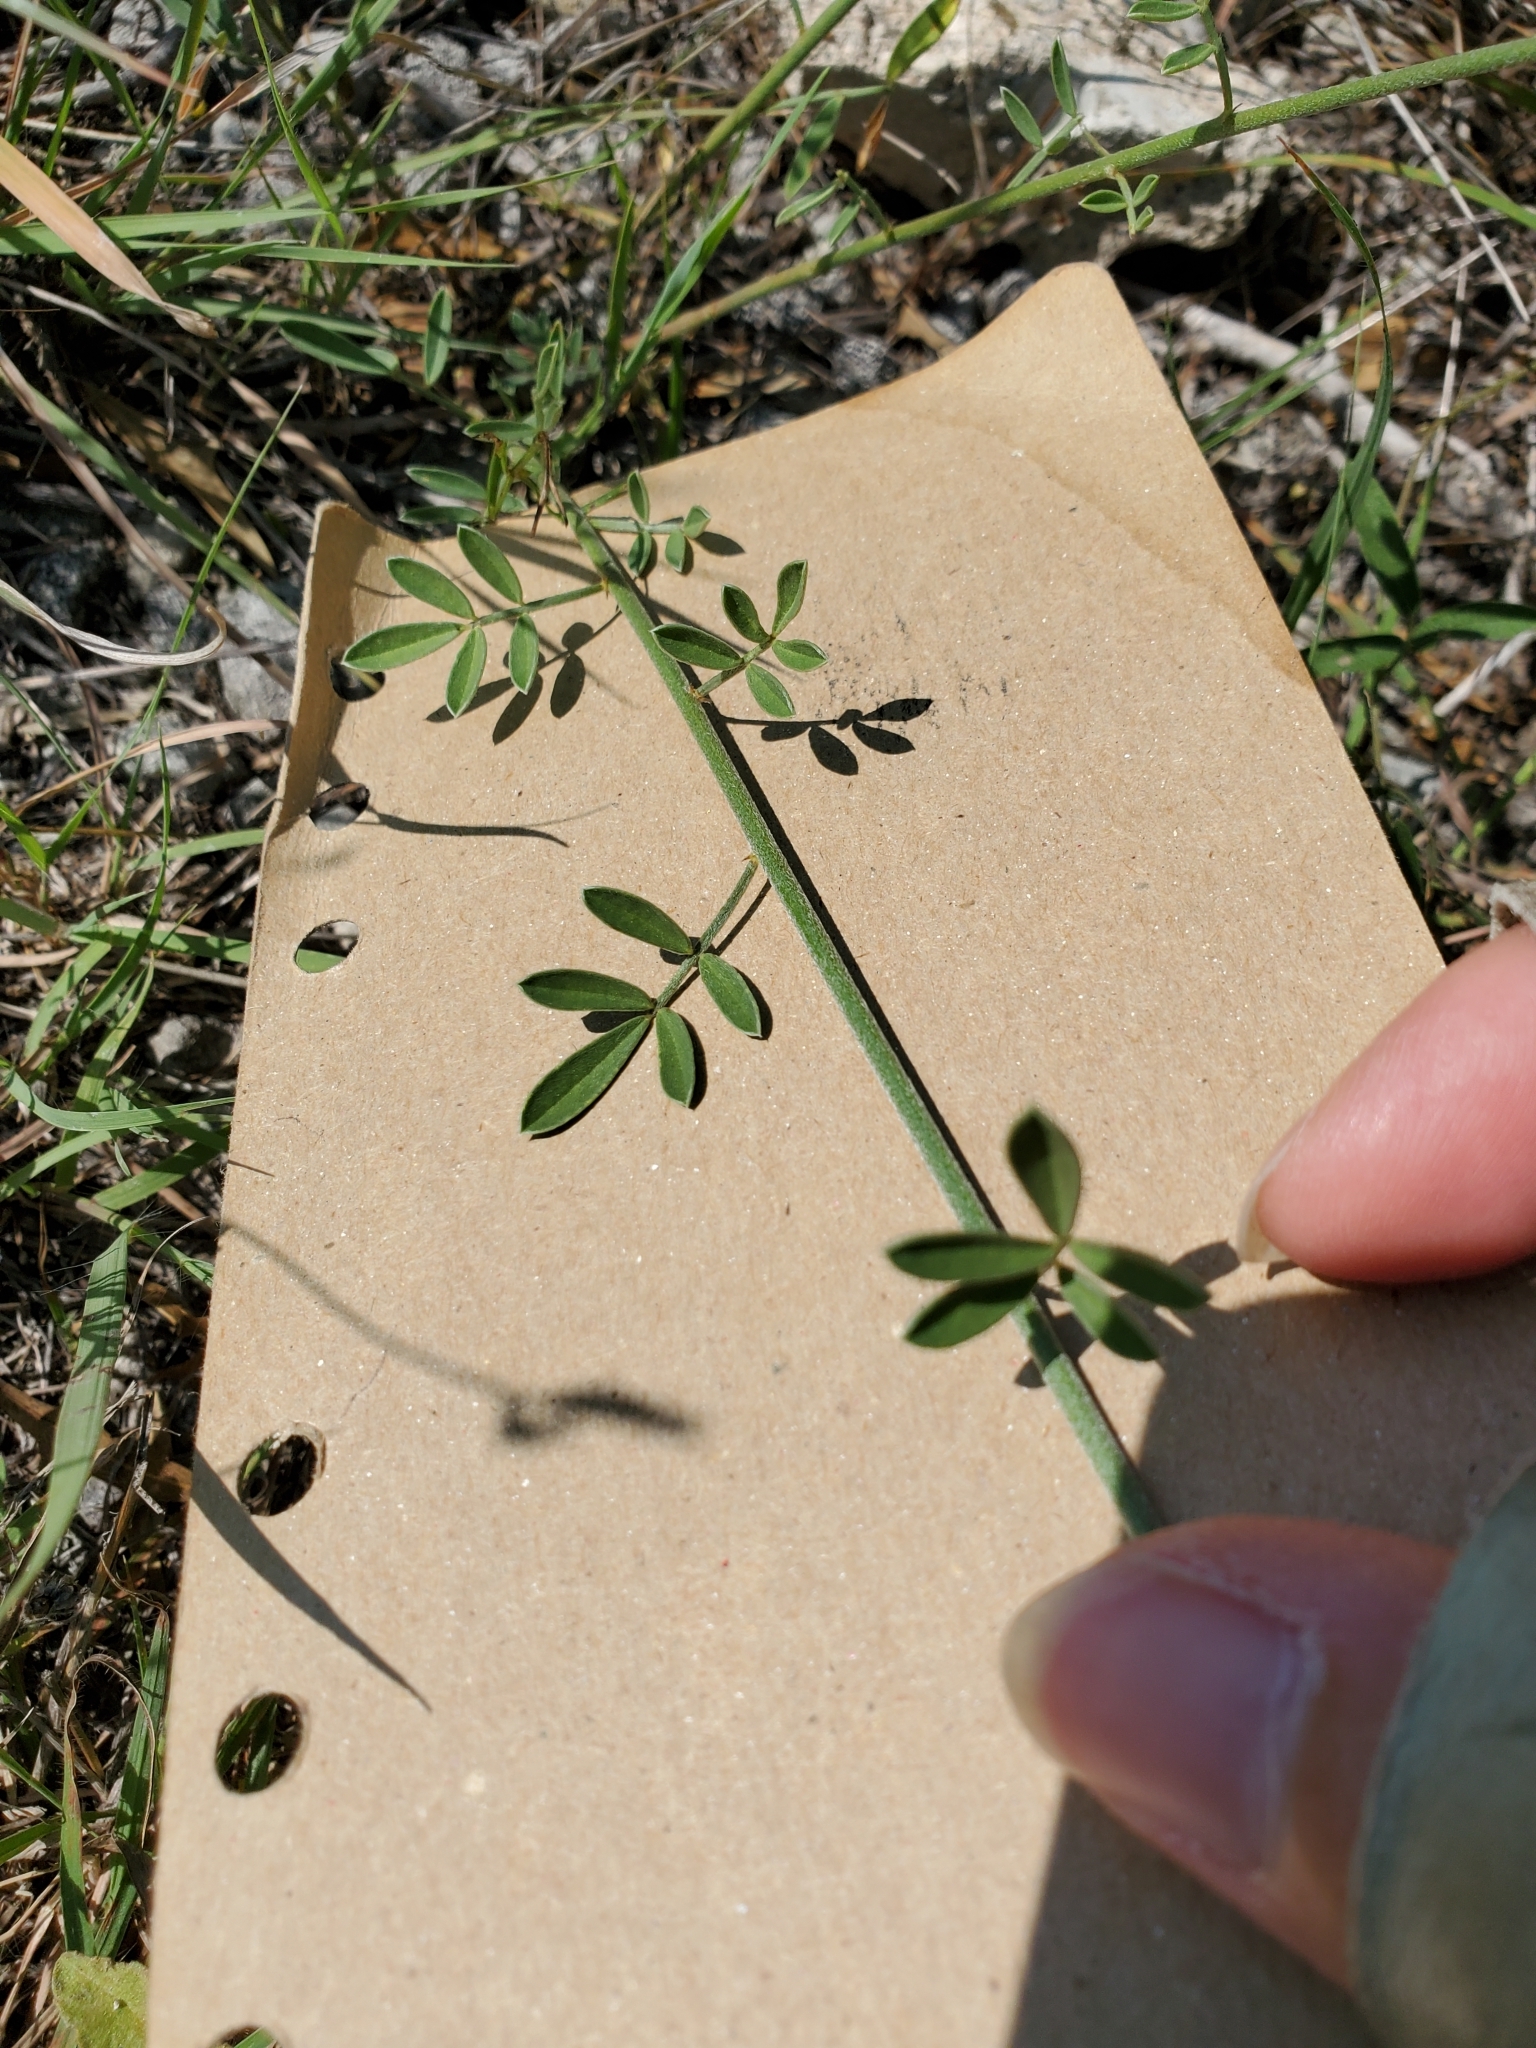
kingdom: Plantae
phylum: Tracheophyta
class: Magnoliopsida
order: Fabales
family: Fabaceae
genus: Dalea
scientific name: Dalea aurea
